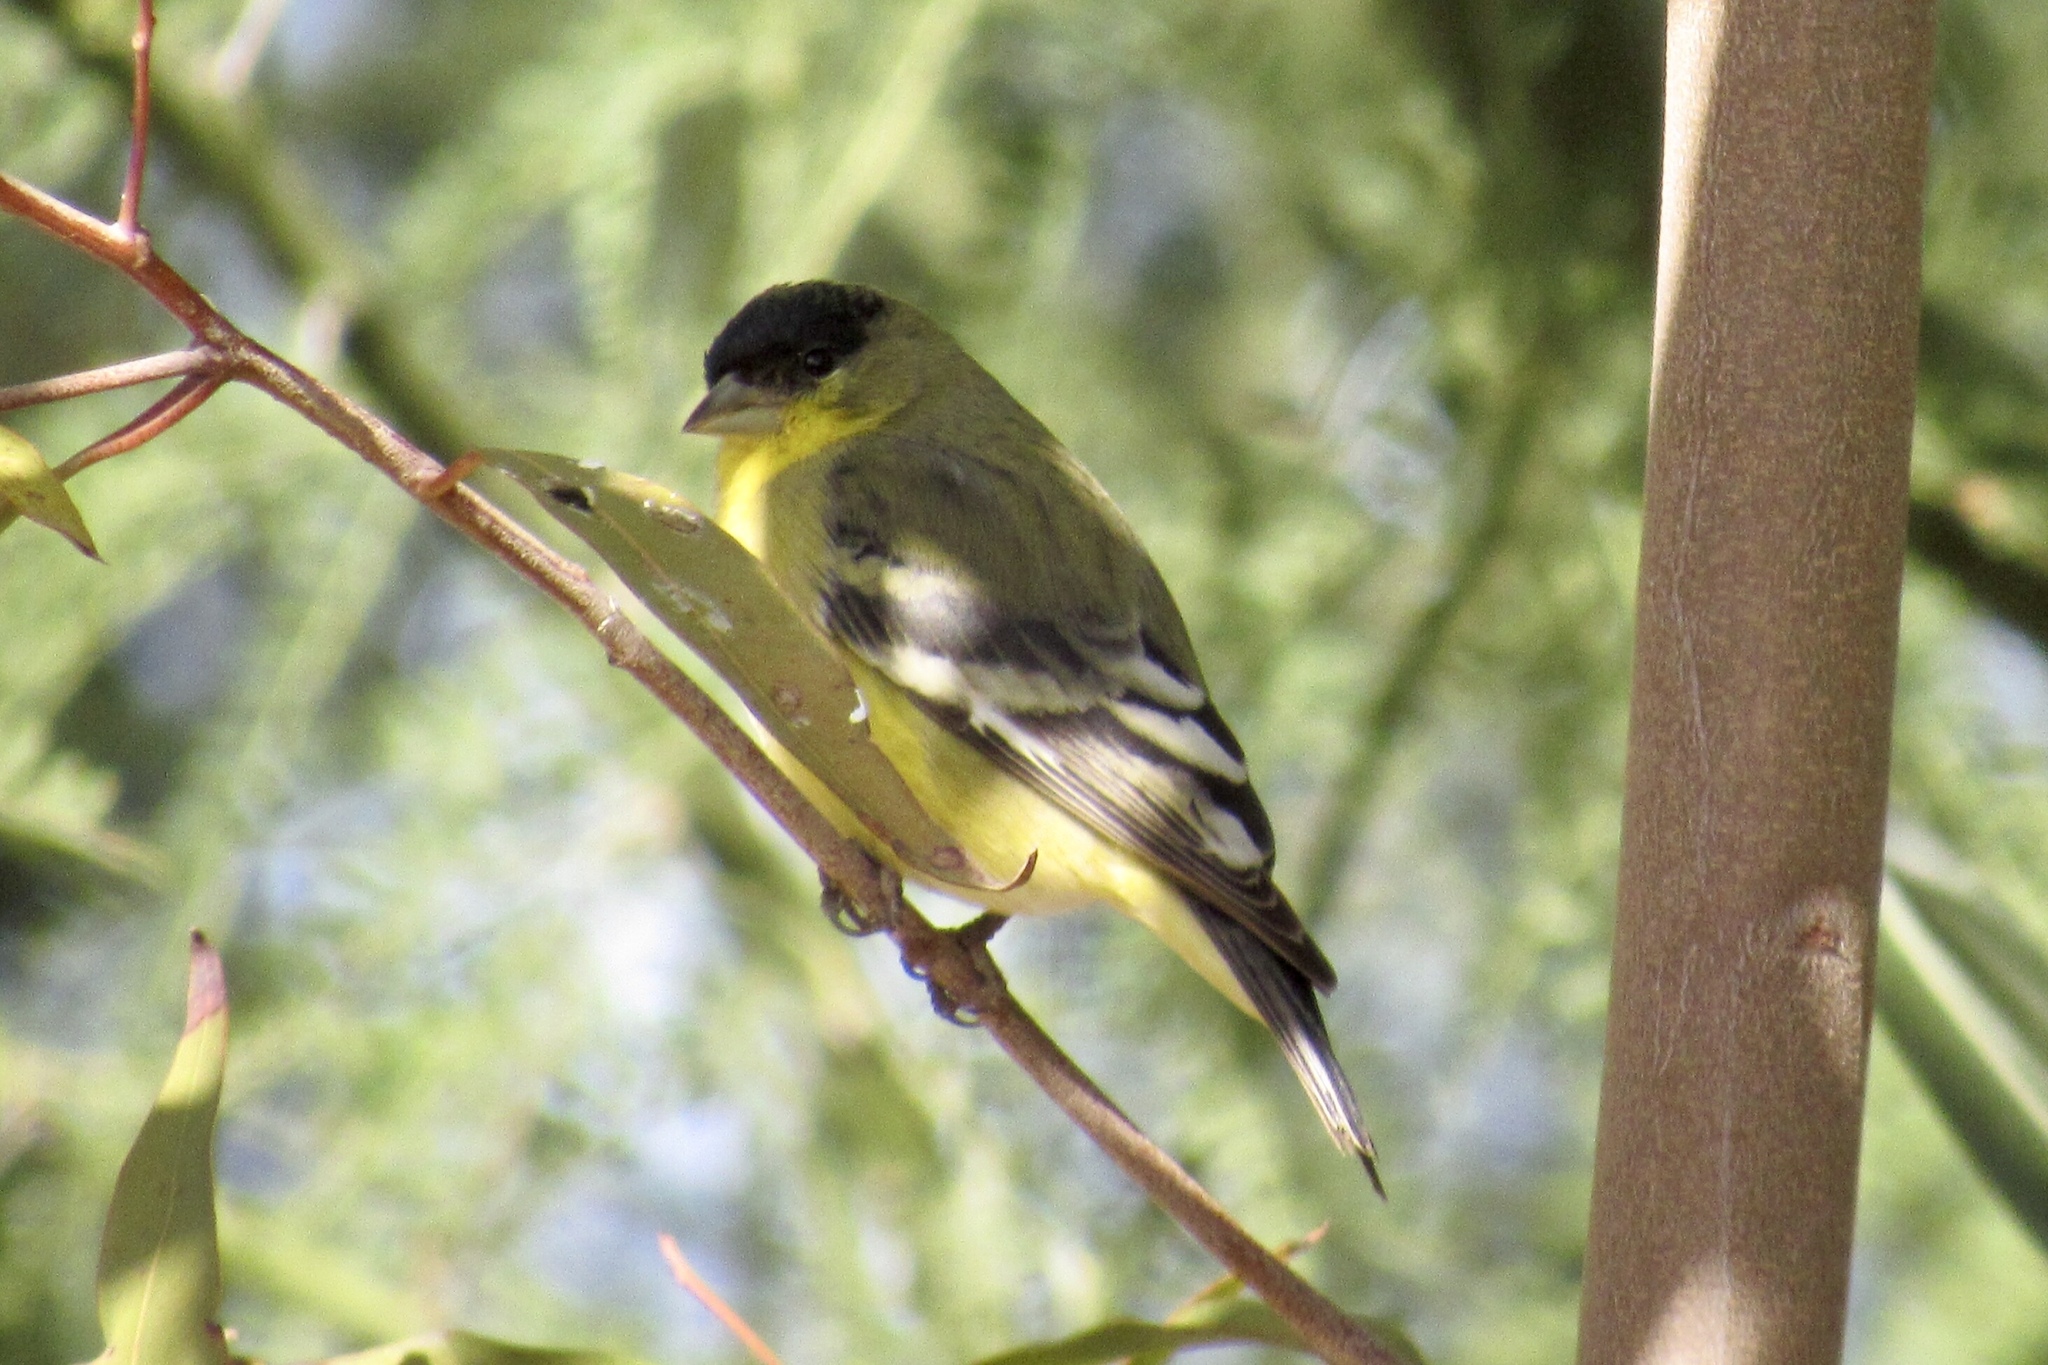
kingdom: Animalia
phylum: Chordata
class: Aves
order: Passeriformes
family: Fringillidae
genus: Spinus
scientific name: Spinus psaltria
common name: Lesser goldfinch
